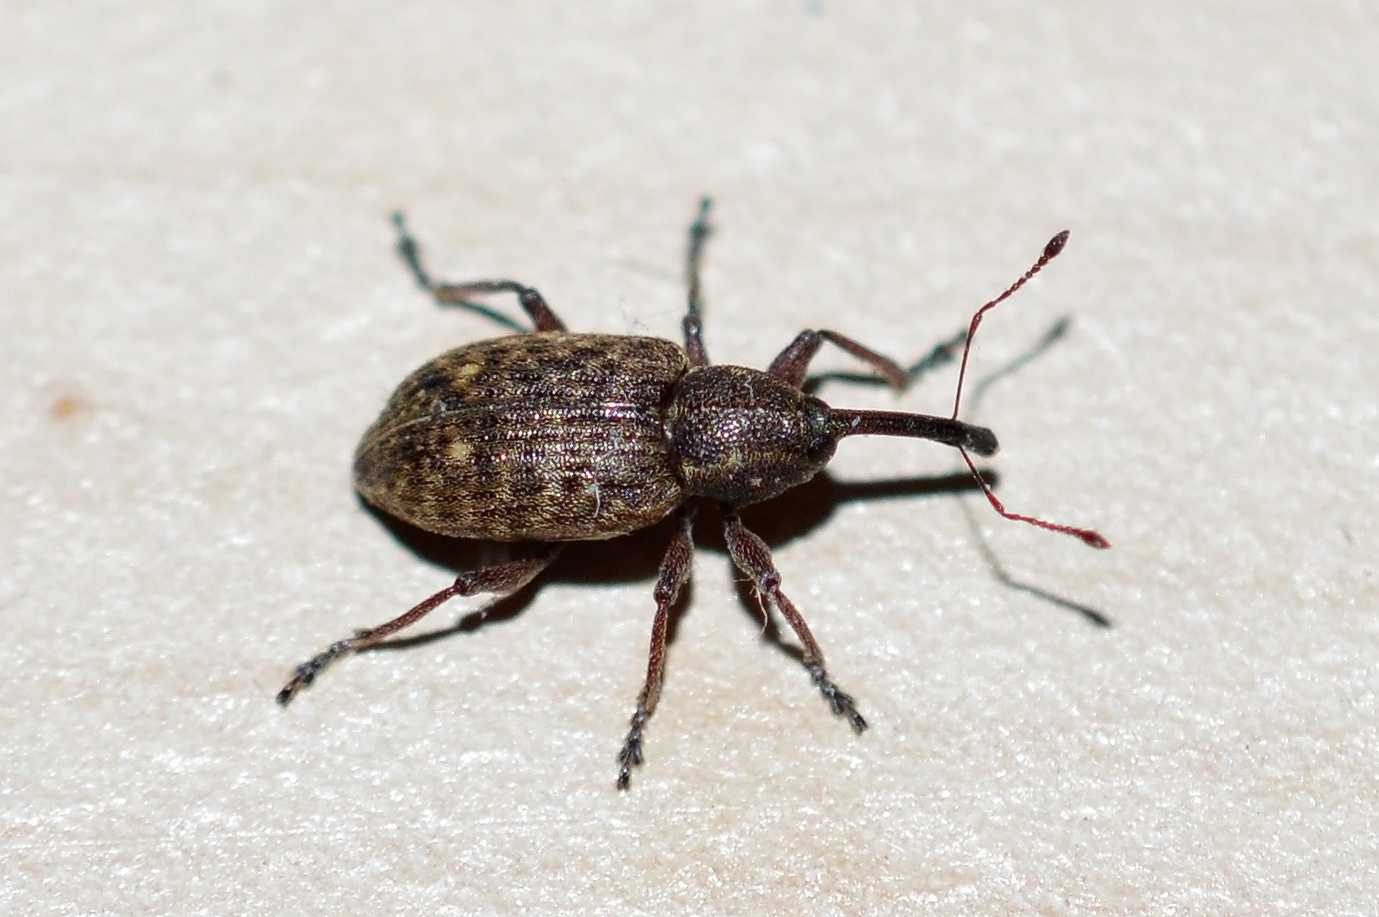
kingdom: Animalia
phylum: Arthropoda
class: Insecta
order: Coleoptera
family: Brachyceridae
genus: Notaris
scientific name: Notaris scirpi
